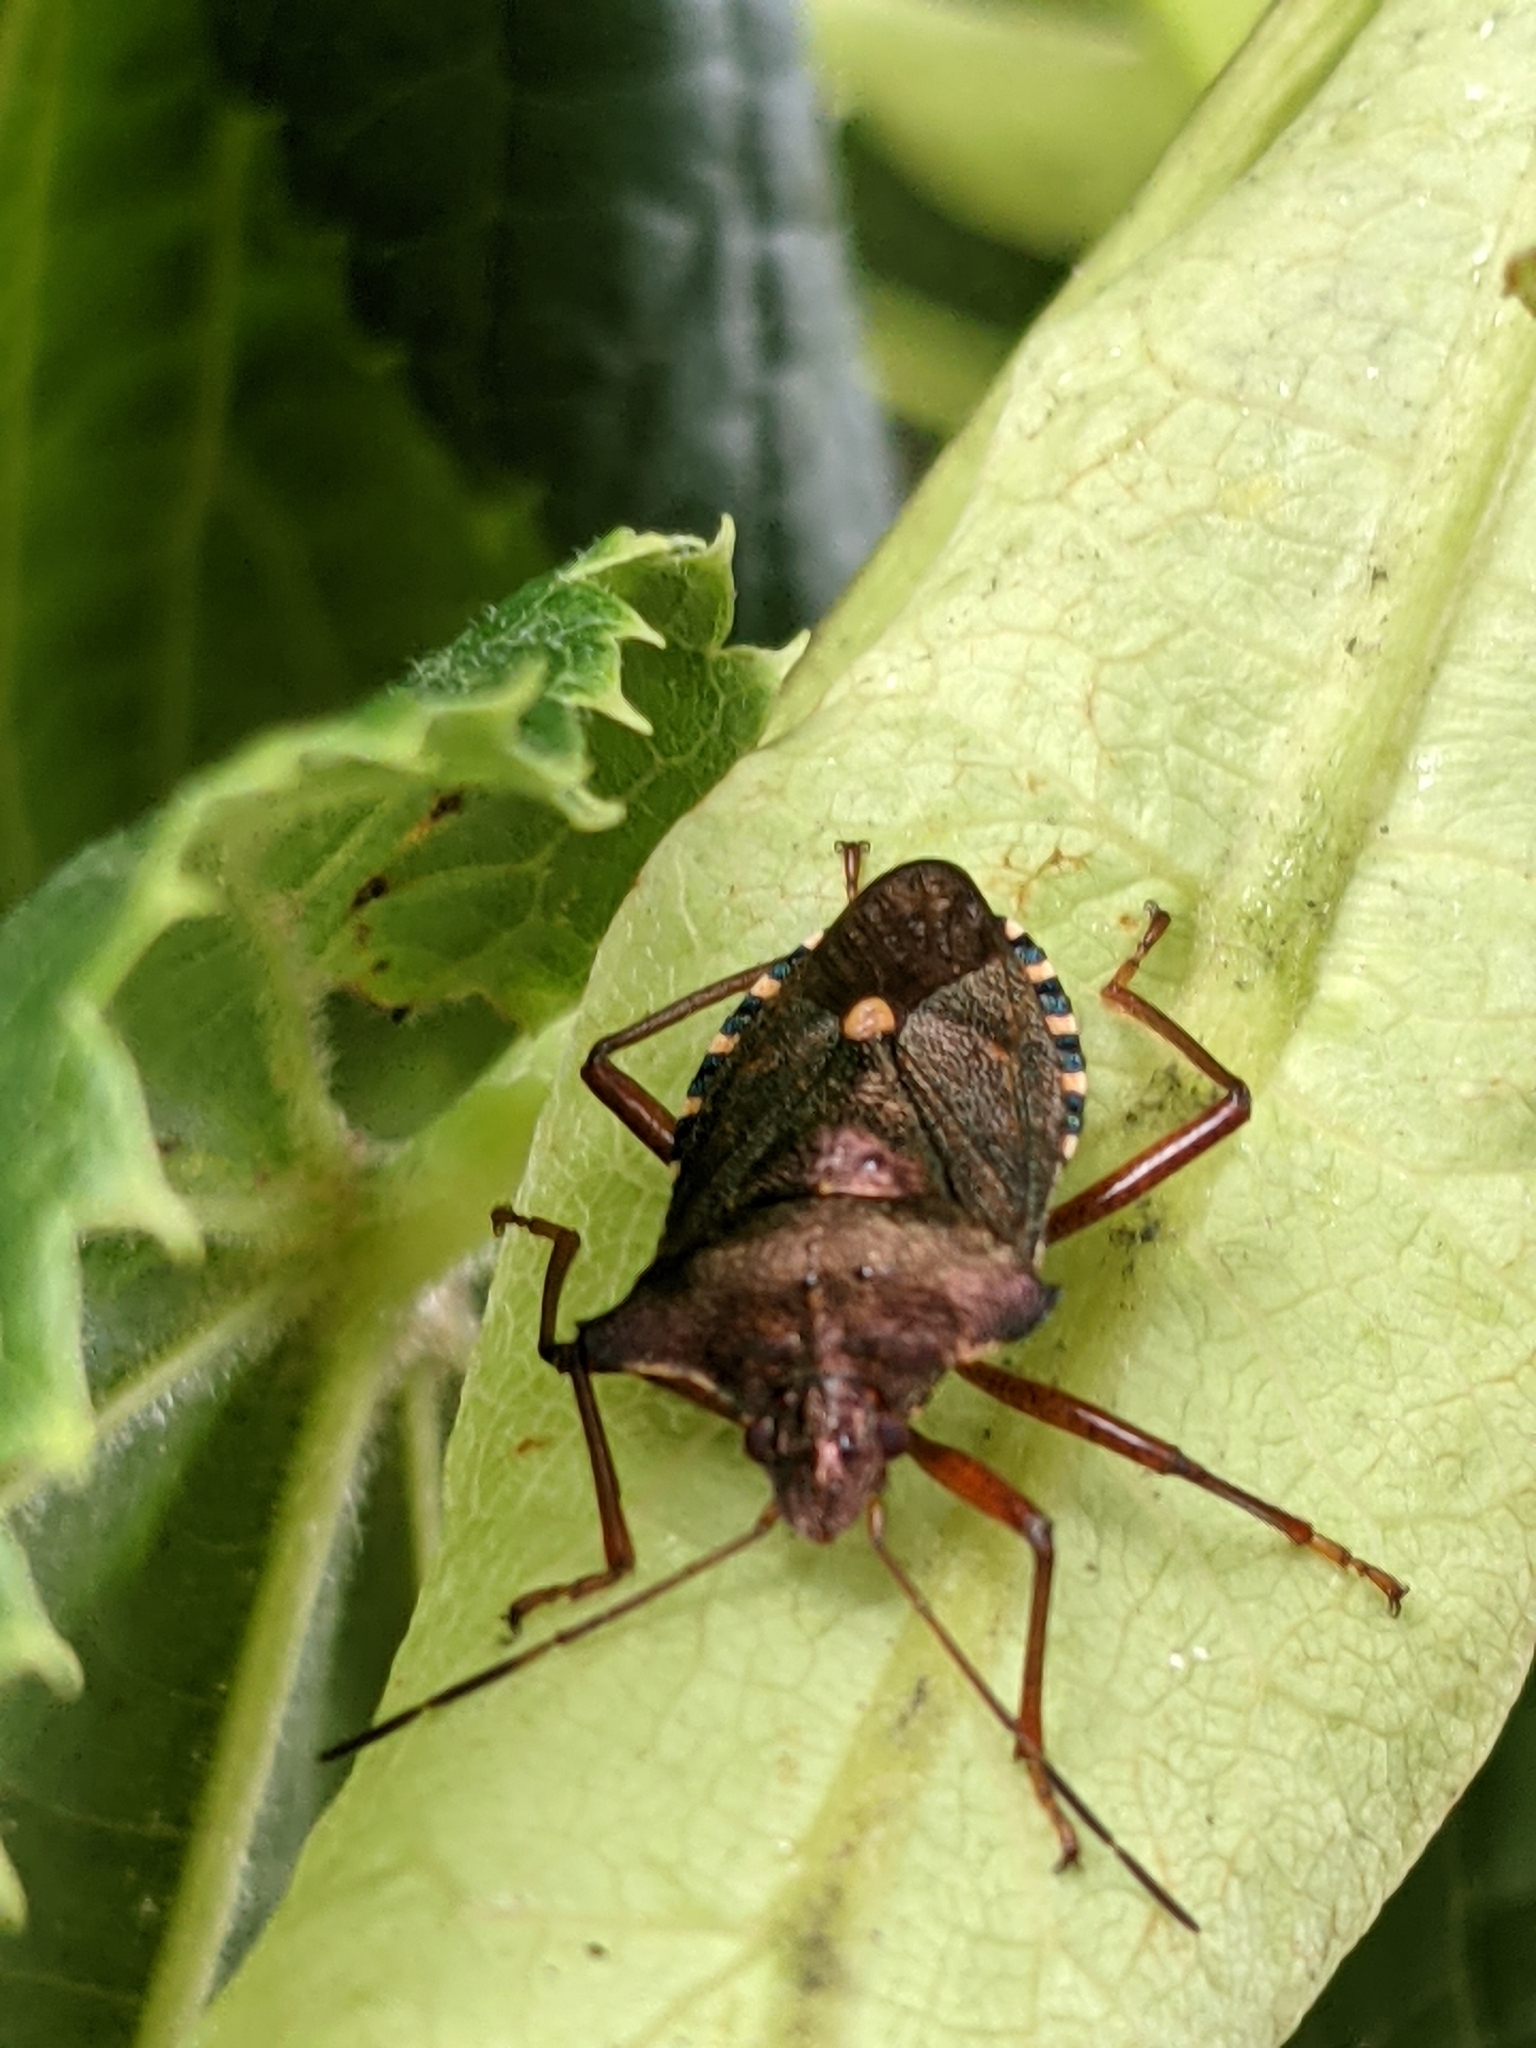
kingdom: Animalia
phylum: Arthropoda
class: Insecta
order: Hemiptera
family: Pentatomidae
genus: Pentatoma
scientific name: Pentatoma rufipes
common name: Forest bug
